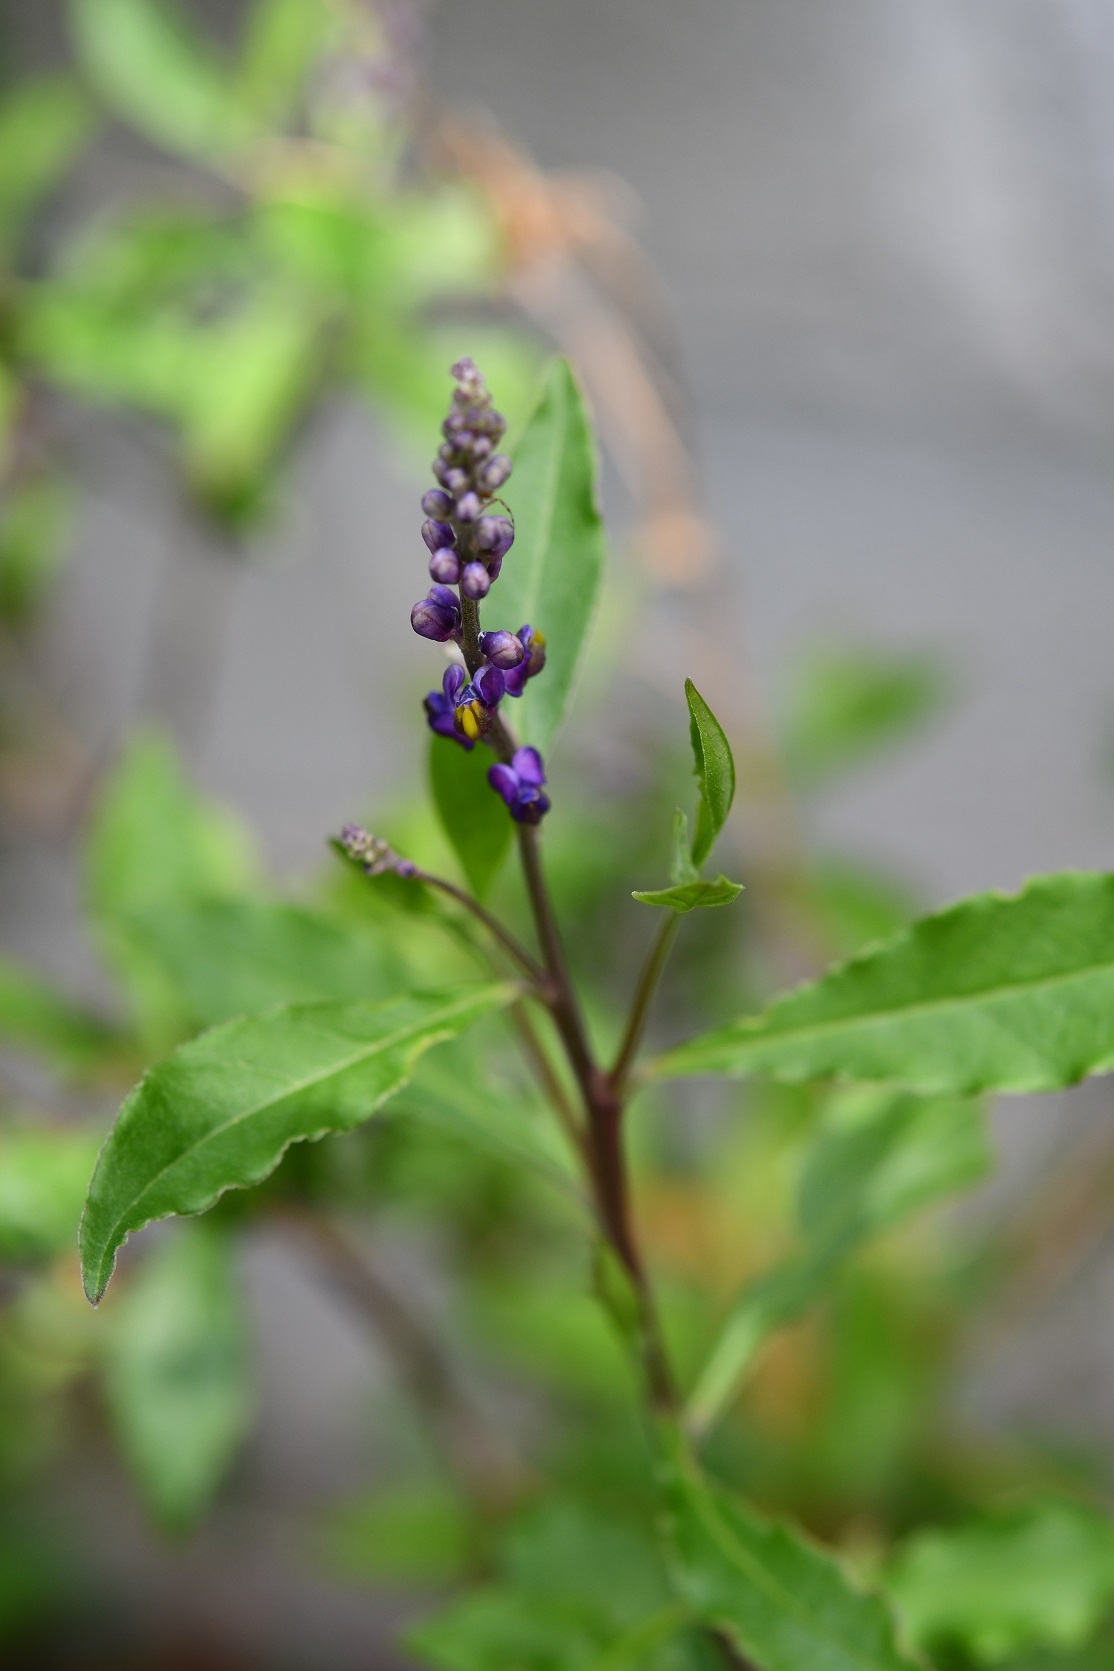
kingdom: Plantae
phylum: Tracheophyta
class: Magnoliopsida
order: Fabales
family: Polygalaceae
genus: Monnina
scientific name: Monnina xalapensis
